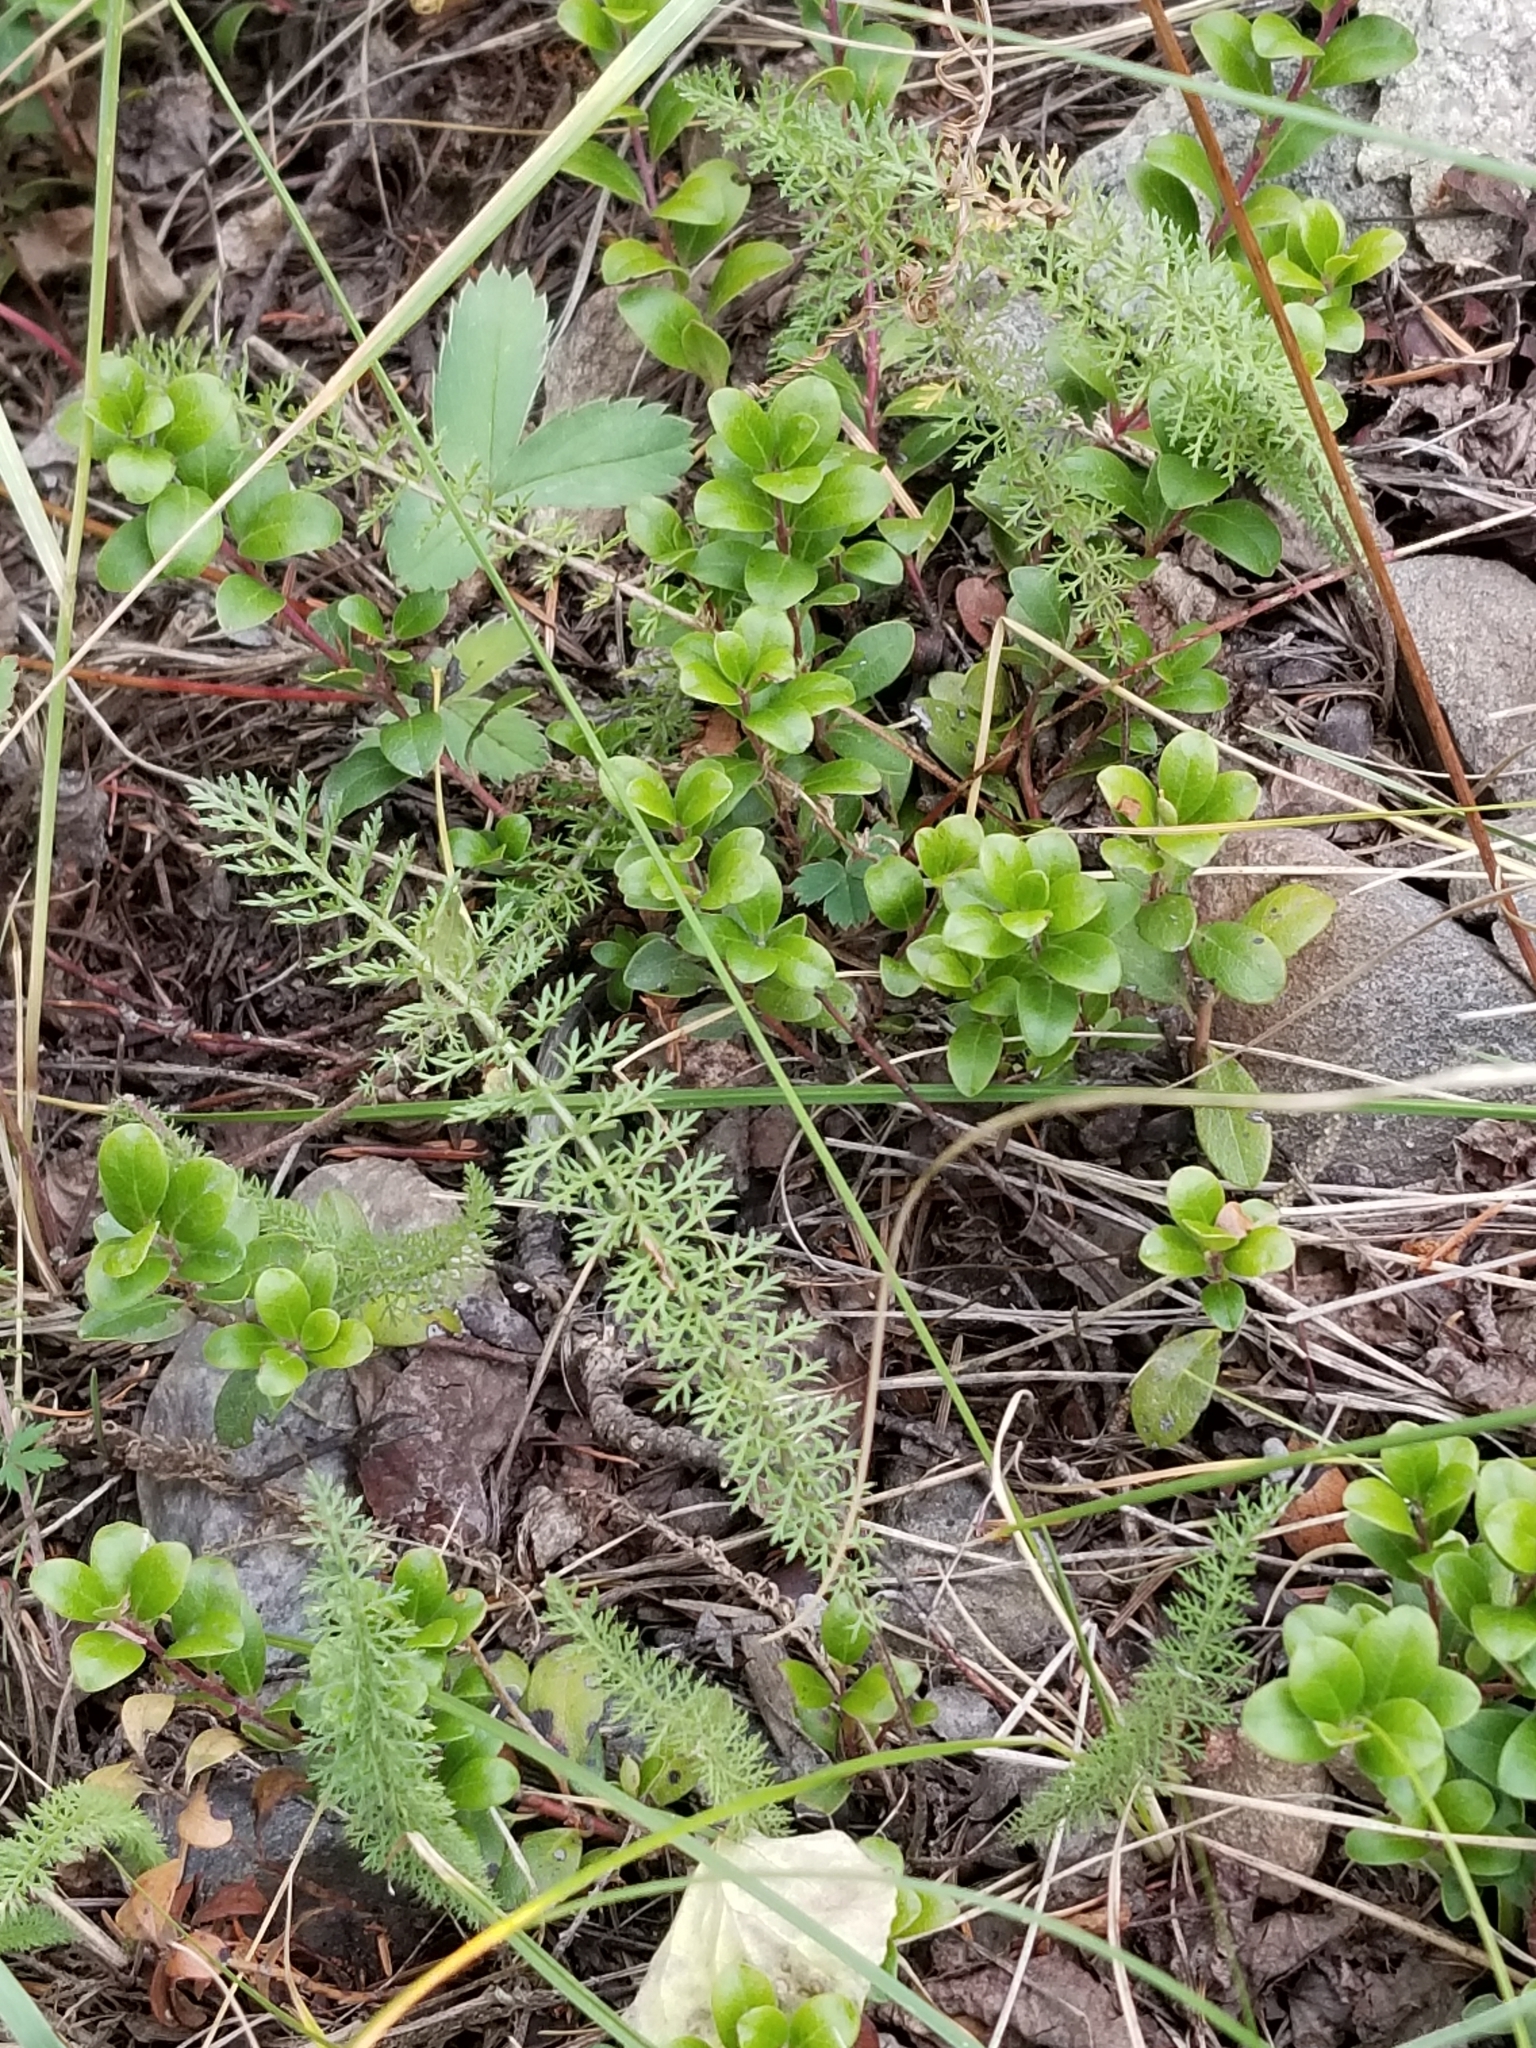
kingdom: Plantae
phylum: Tracheophyta
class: Magnoliopsida
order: Asterales
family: Asteraceae
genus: Achillea
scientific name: Achillea millefolium
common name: Yarrow
